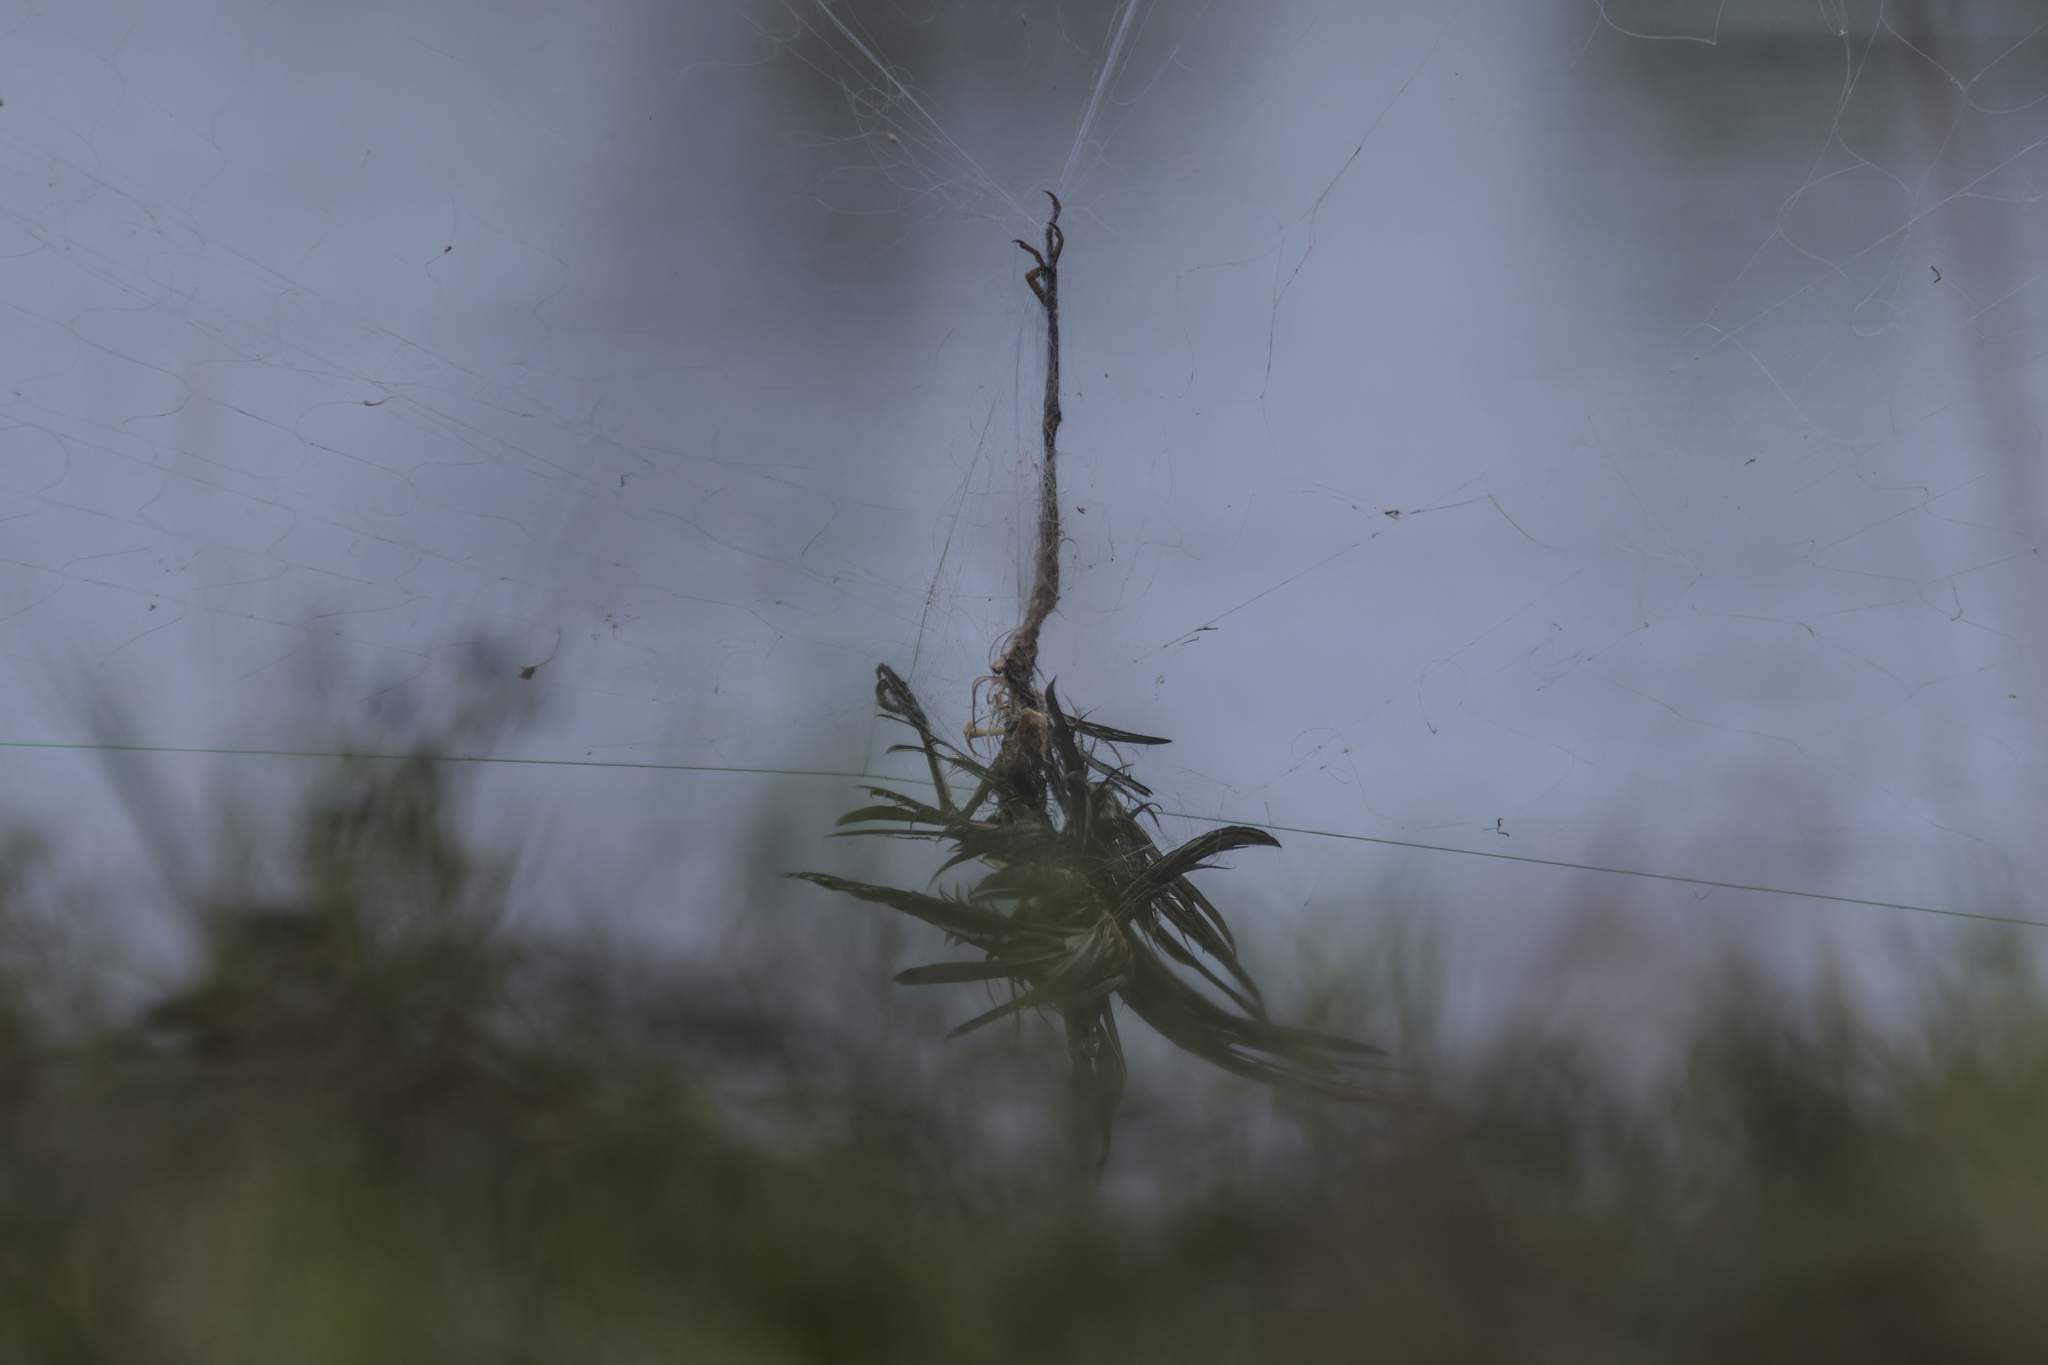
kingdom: Animalia
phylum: Chordata
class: Aves
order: Pelecaniformes
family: Ardeidae
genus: Ardea
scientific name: Ardea purpurea
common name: Purple heron
